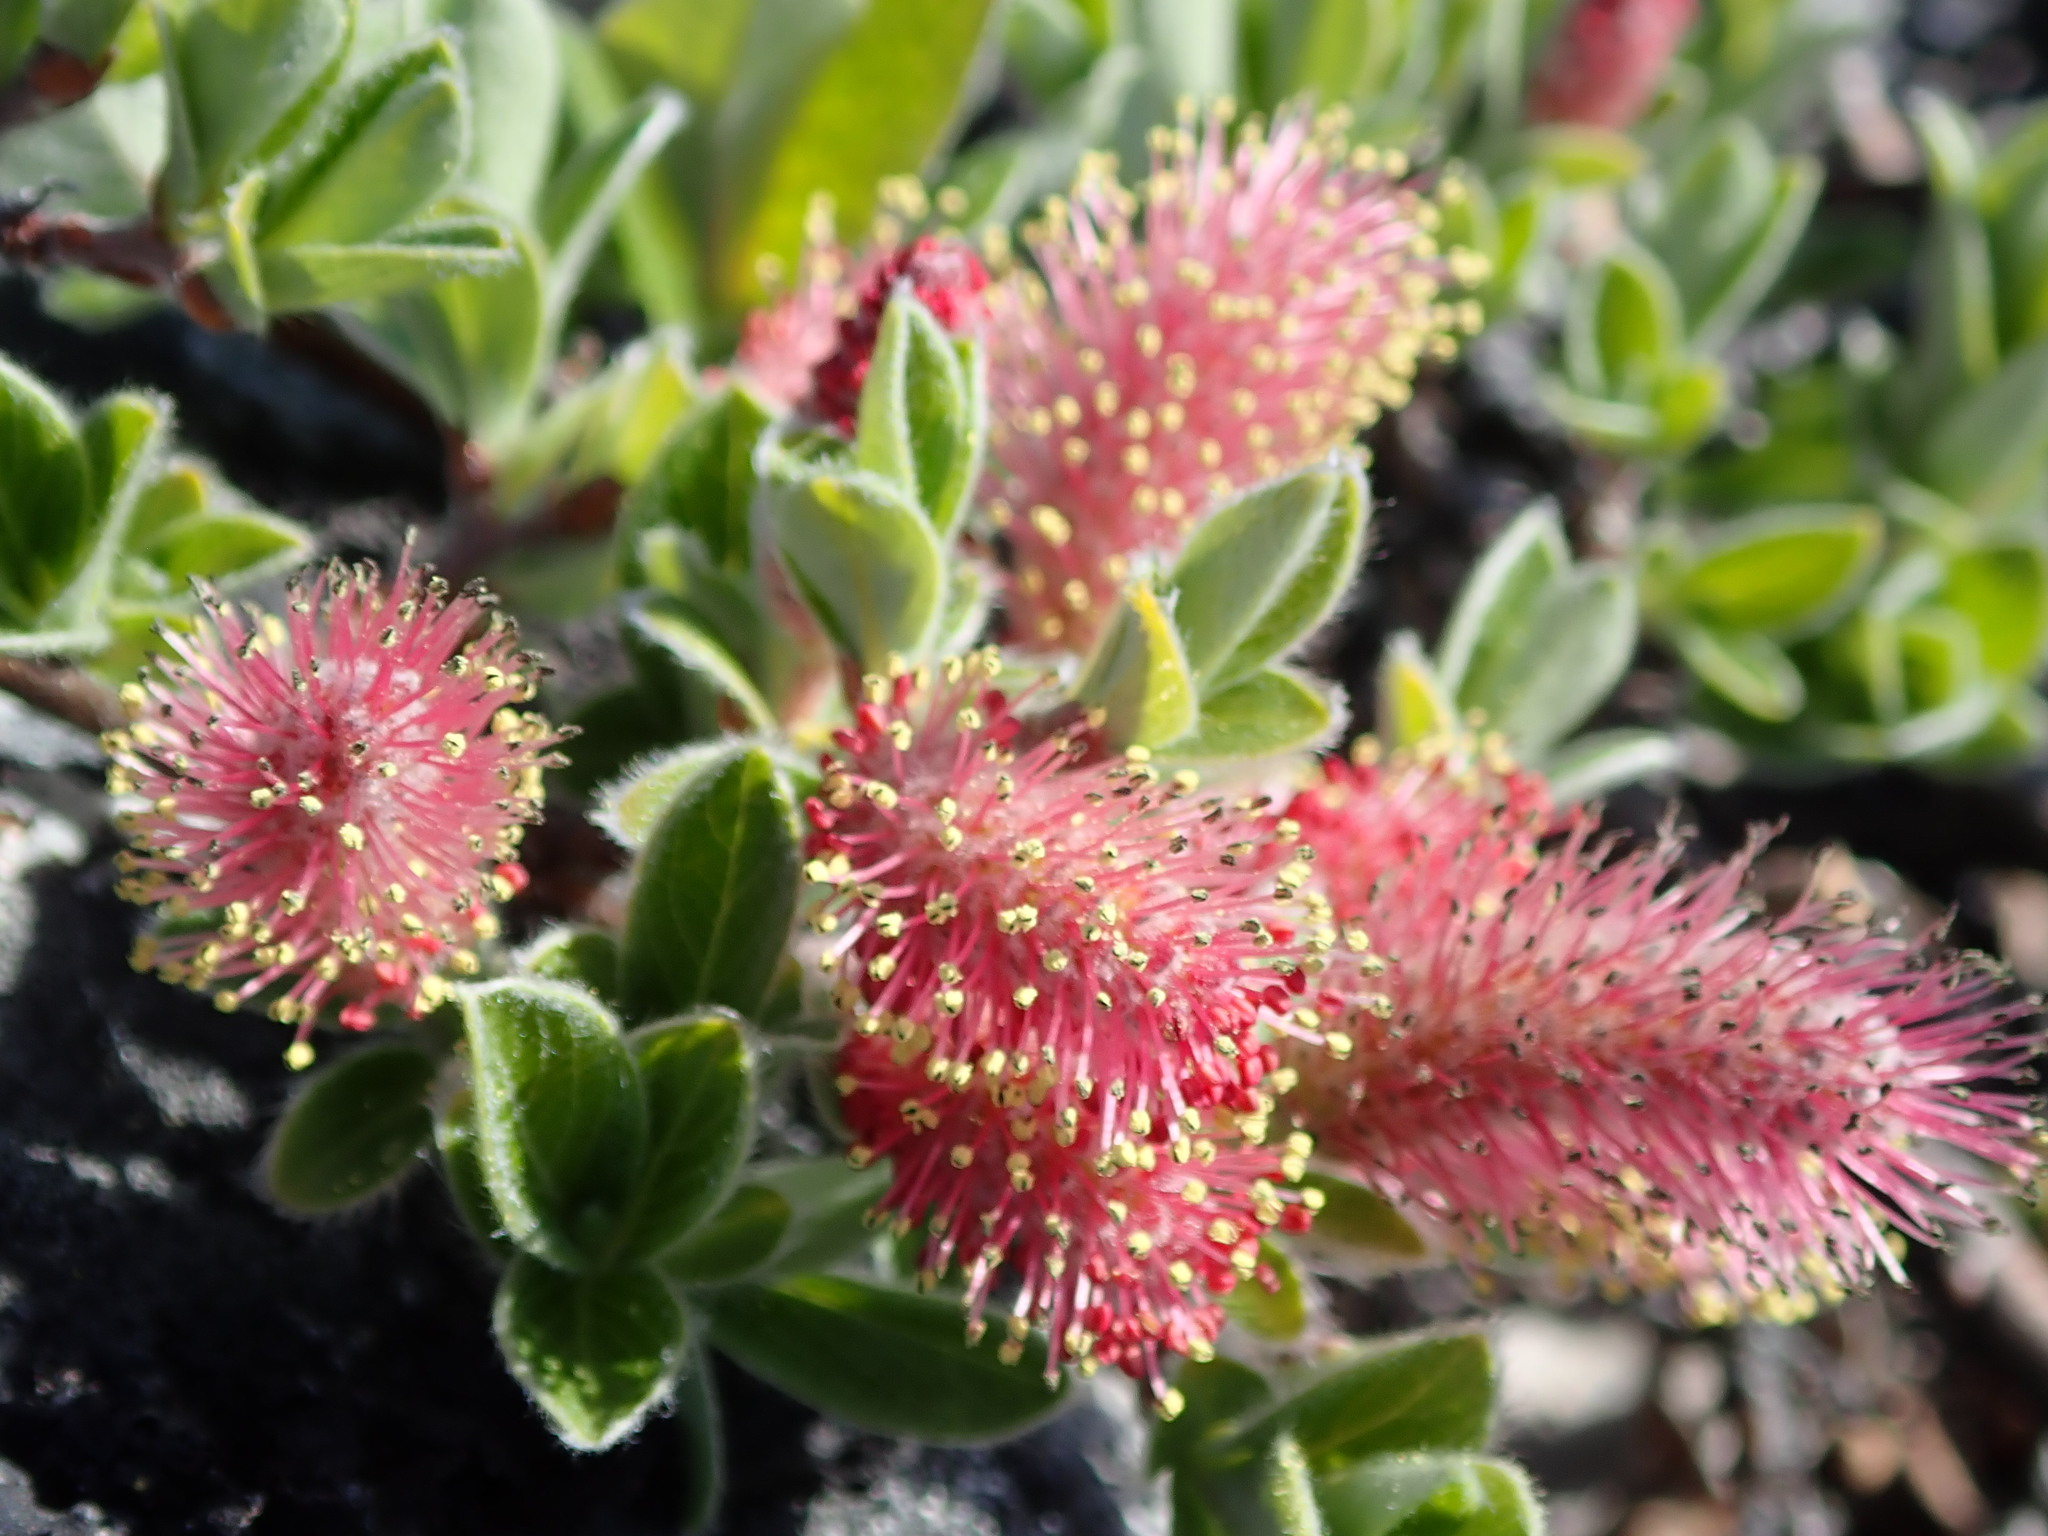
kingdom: Plantae
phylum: Tracheophyta
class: Magnoliopsida
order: Malpighiales
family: Salicaceae
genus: Salix
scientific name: Salix arctica
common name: Arctic willow
